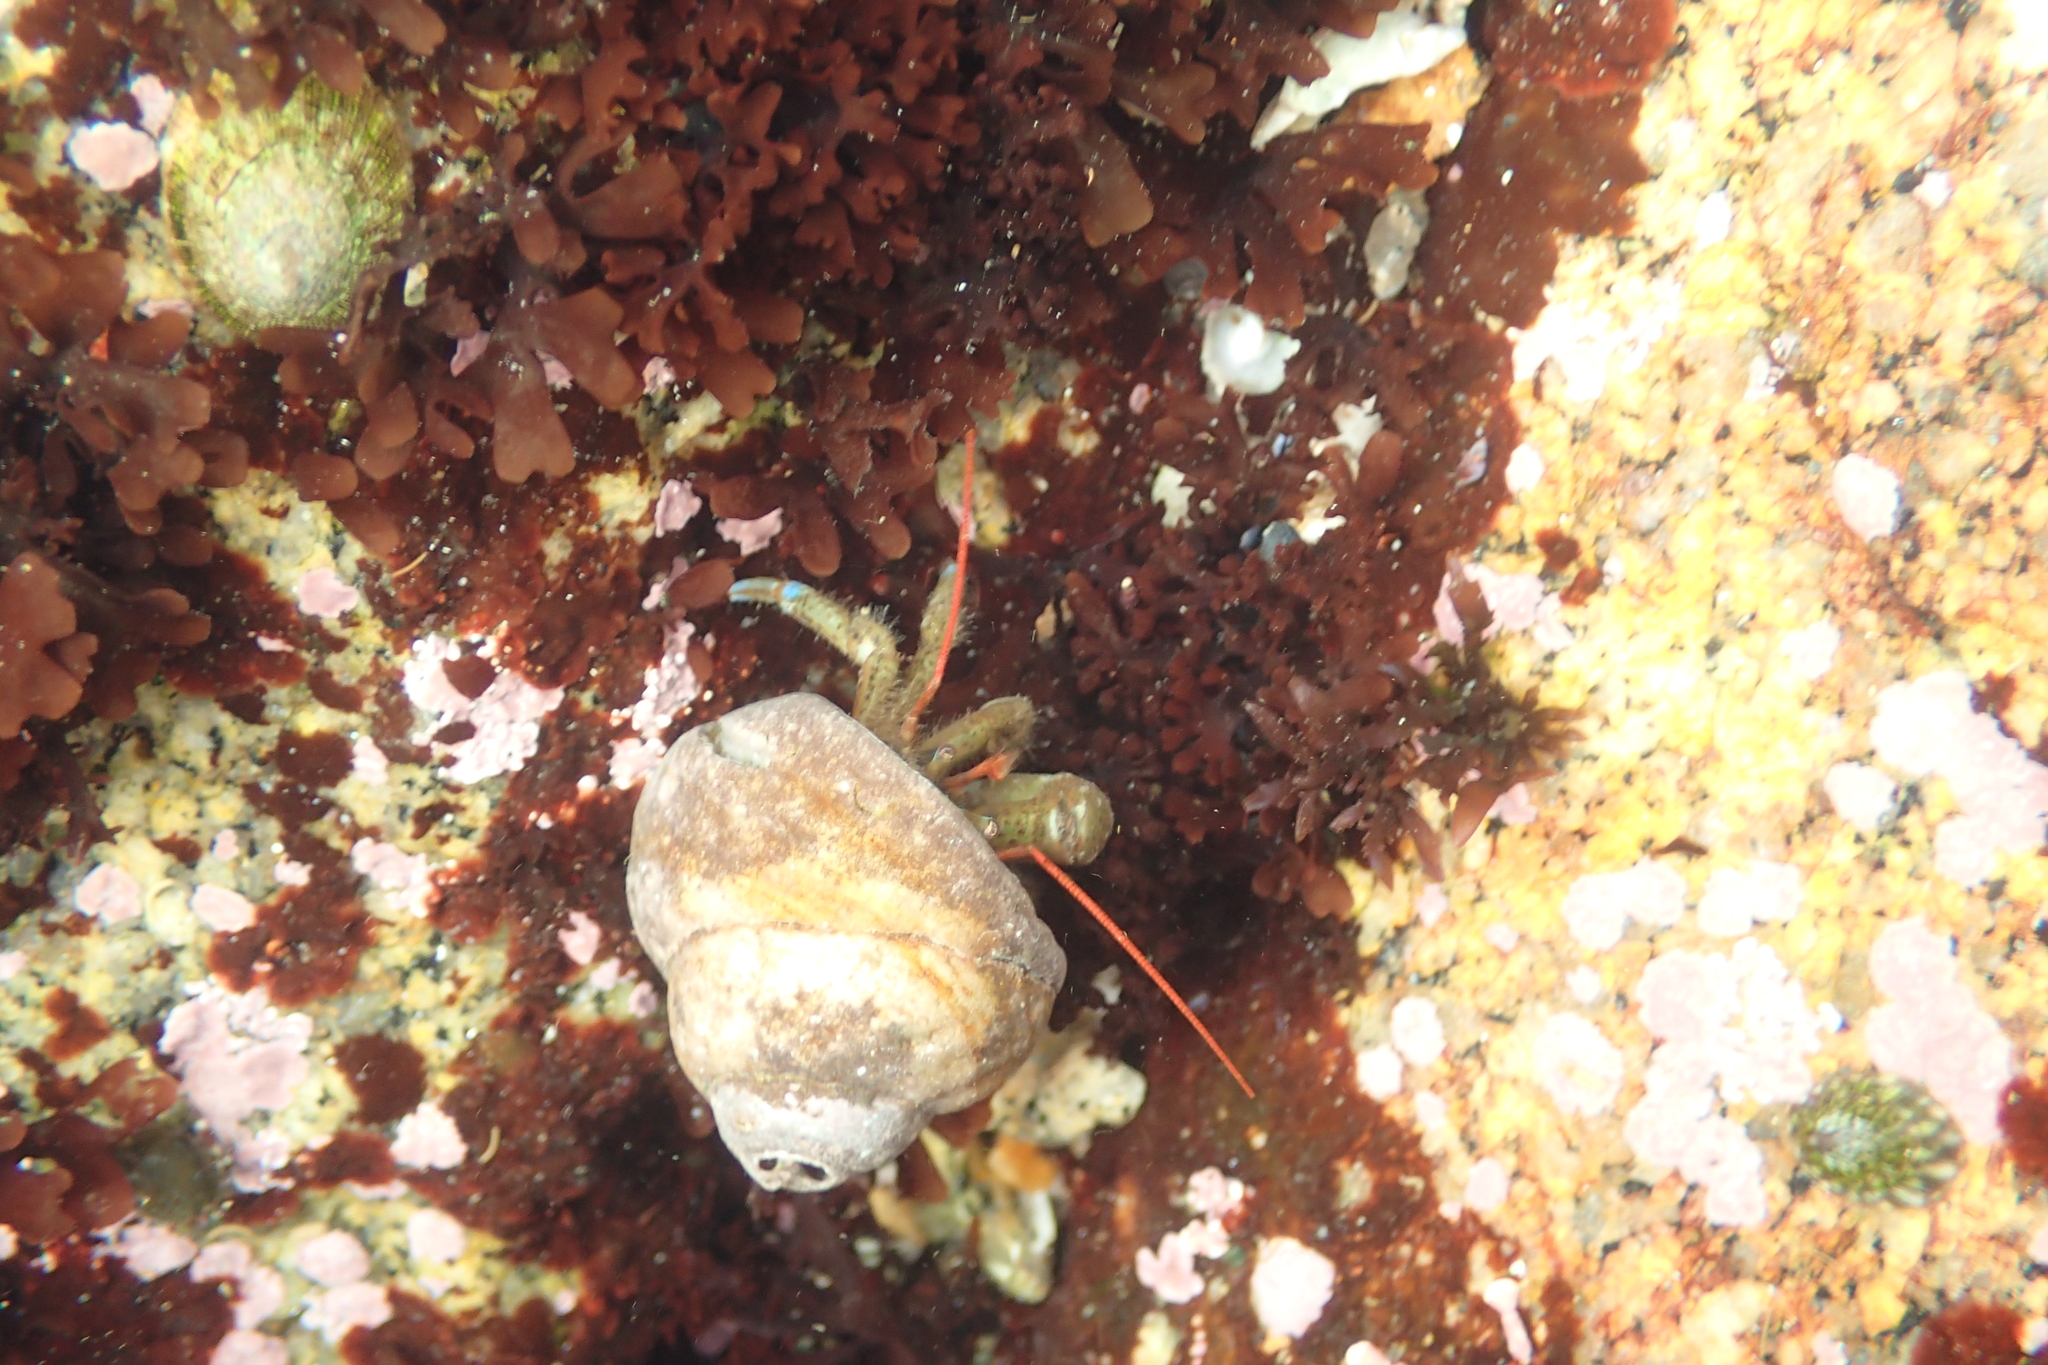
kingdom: Animalia
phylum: Arthropoda
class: Malacostraca
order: Decapoda
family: Paguridae
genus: Pagurus
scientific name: Pagurus samuelis
